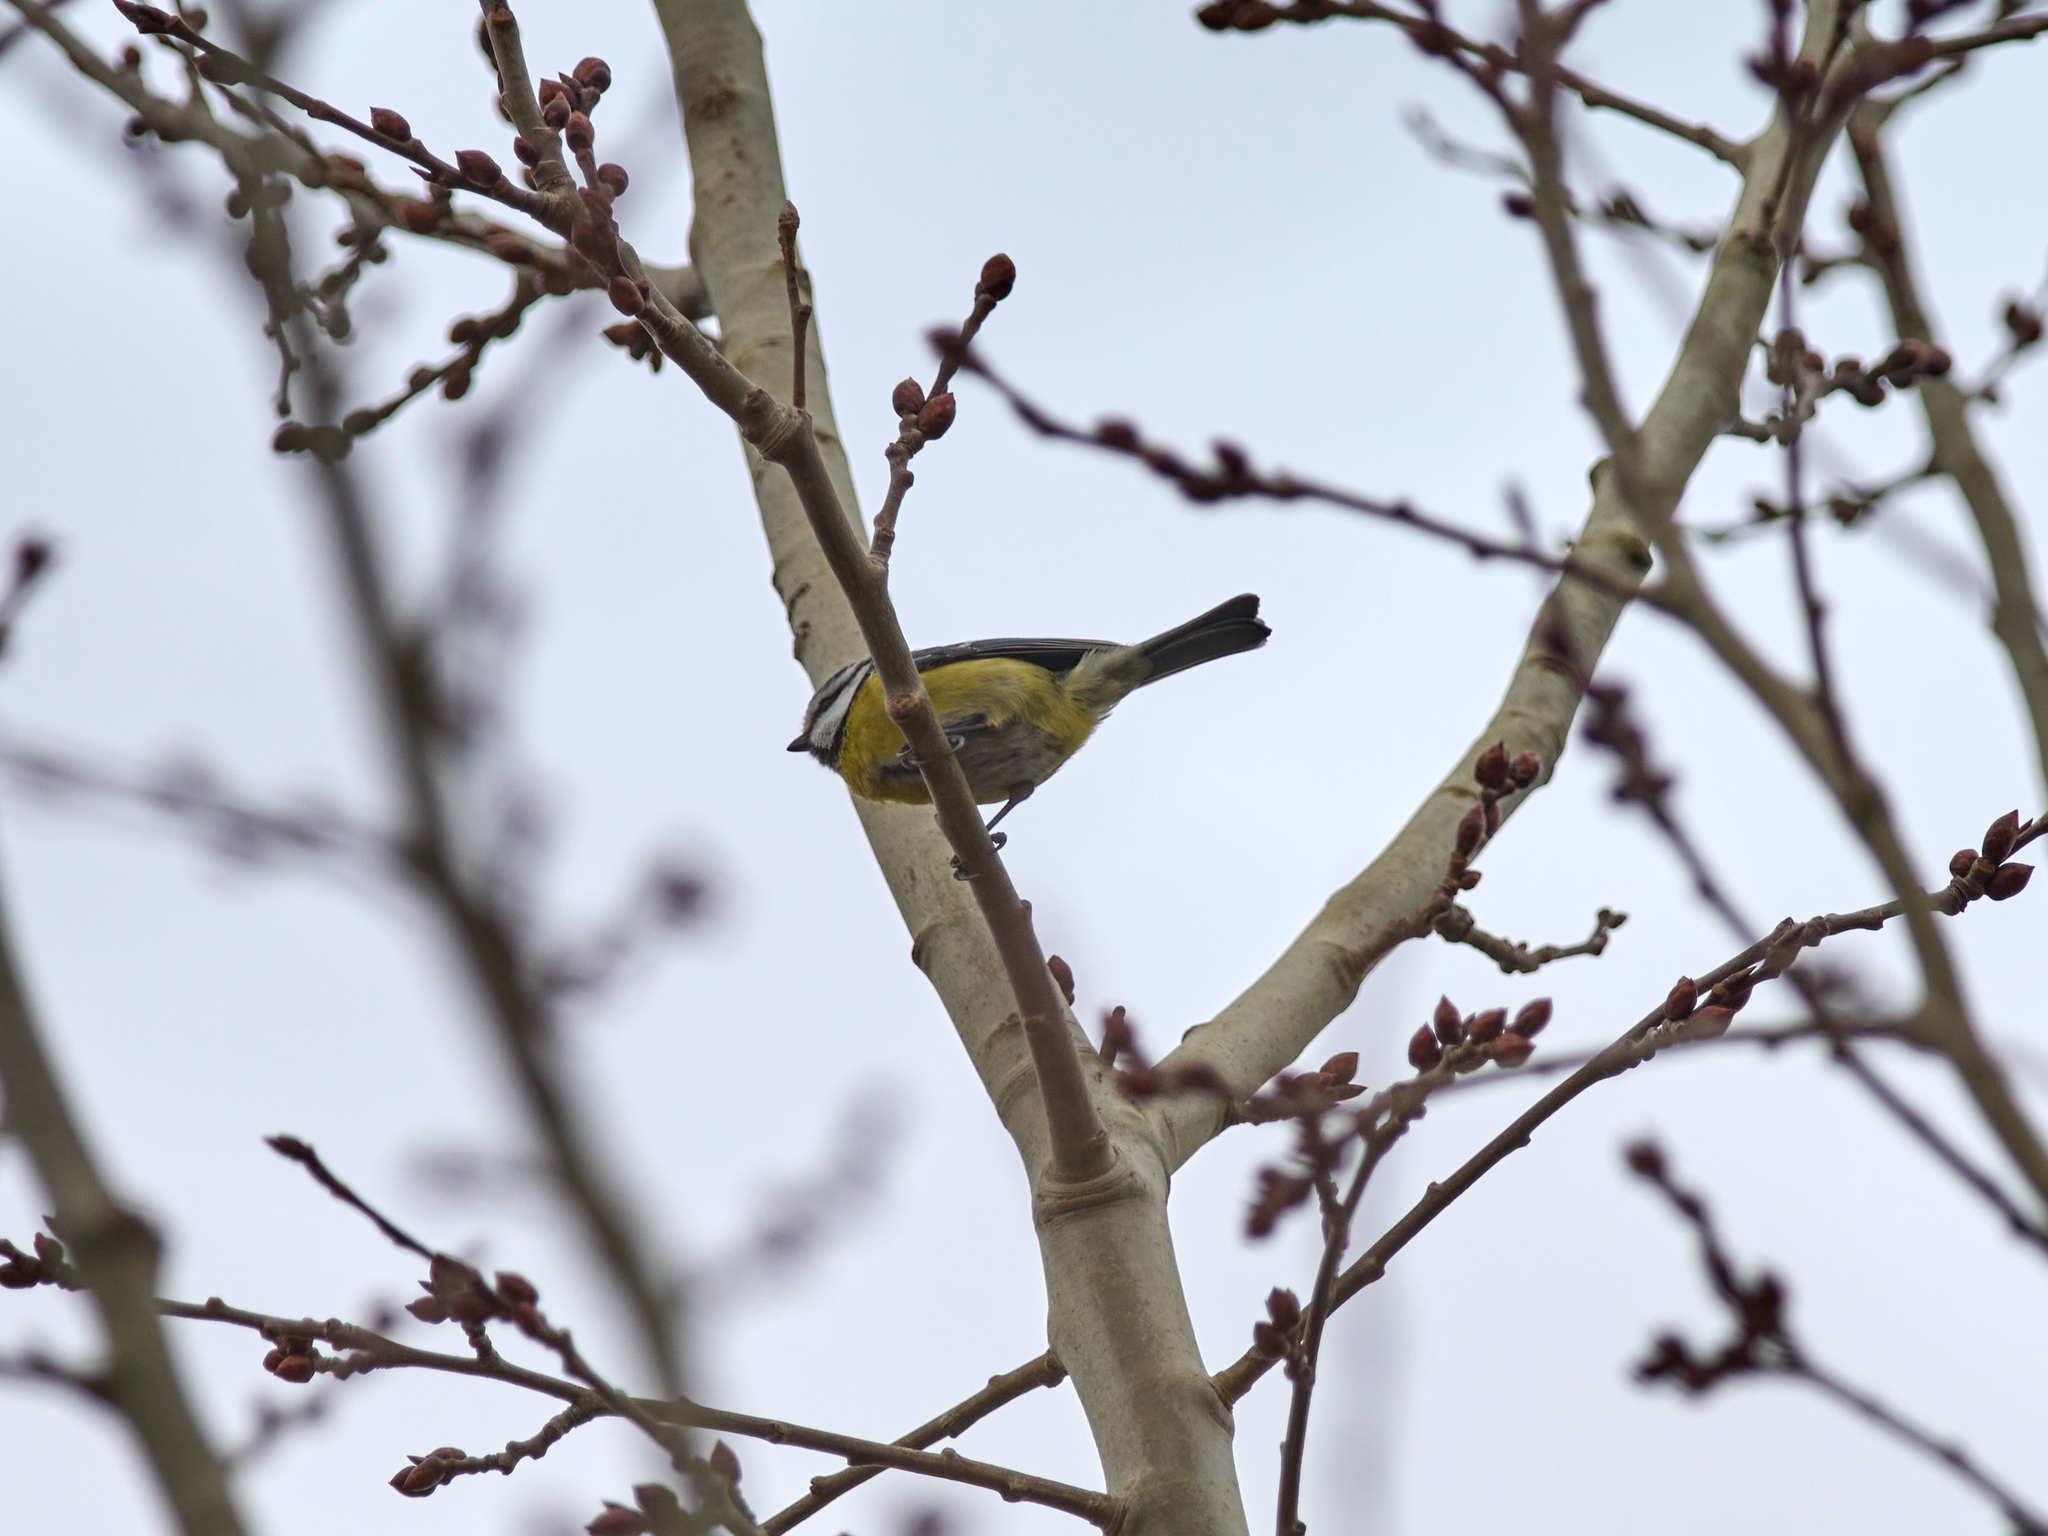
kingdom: Animalia
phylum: Chordata
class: Aves
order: Passeriformes
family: Paridae
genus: Cyanistes
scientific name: Cyanistes caeruleus
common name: Eurasian blue tit
